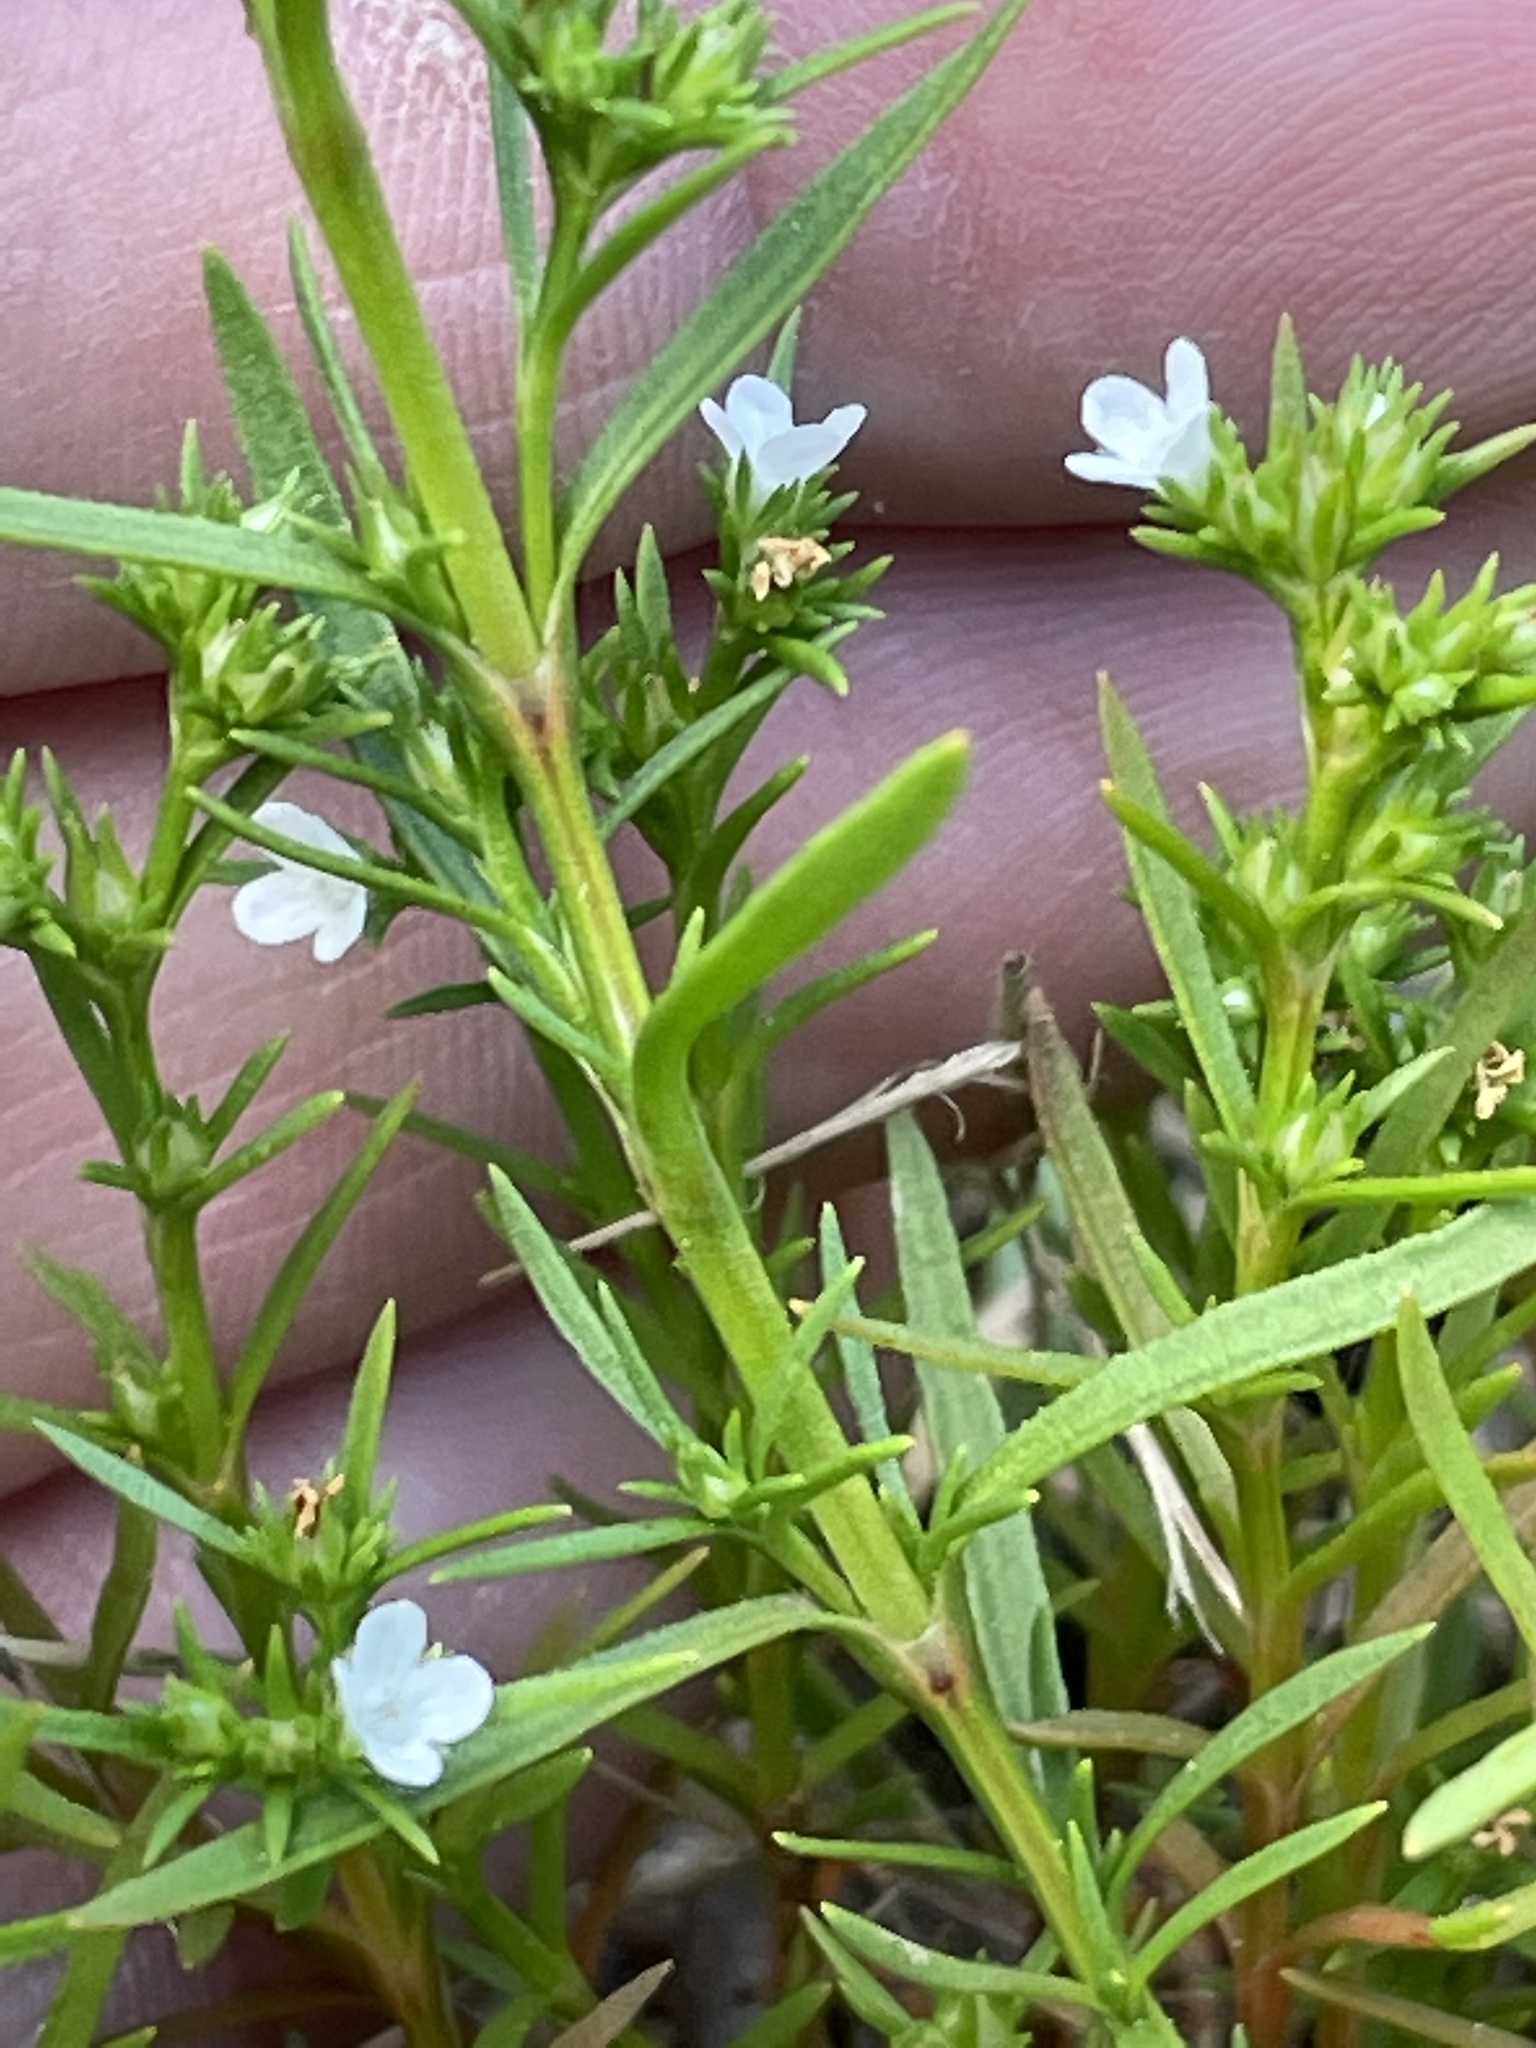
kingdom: Plantae
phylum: Tracheophyta
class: Magnoliopsida
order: Lamiales
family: Tetrachondraceae
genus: Polypremum
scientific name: Polypremum procumbens
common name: Juniper-leaf
